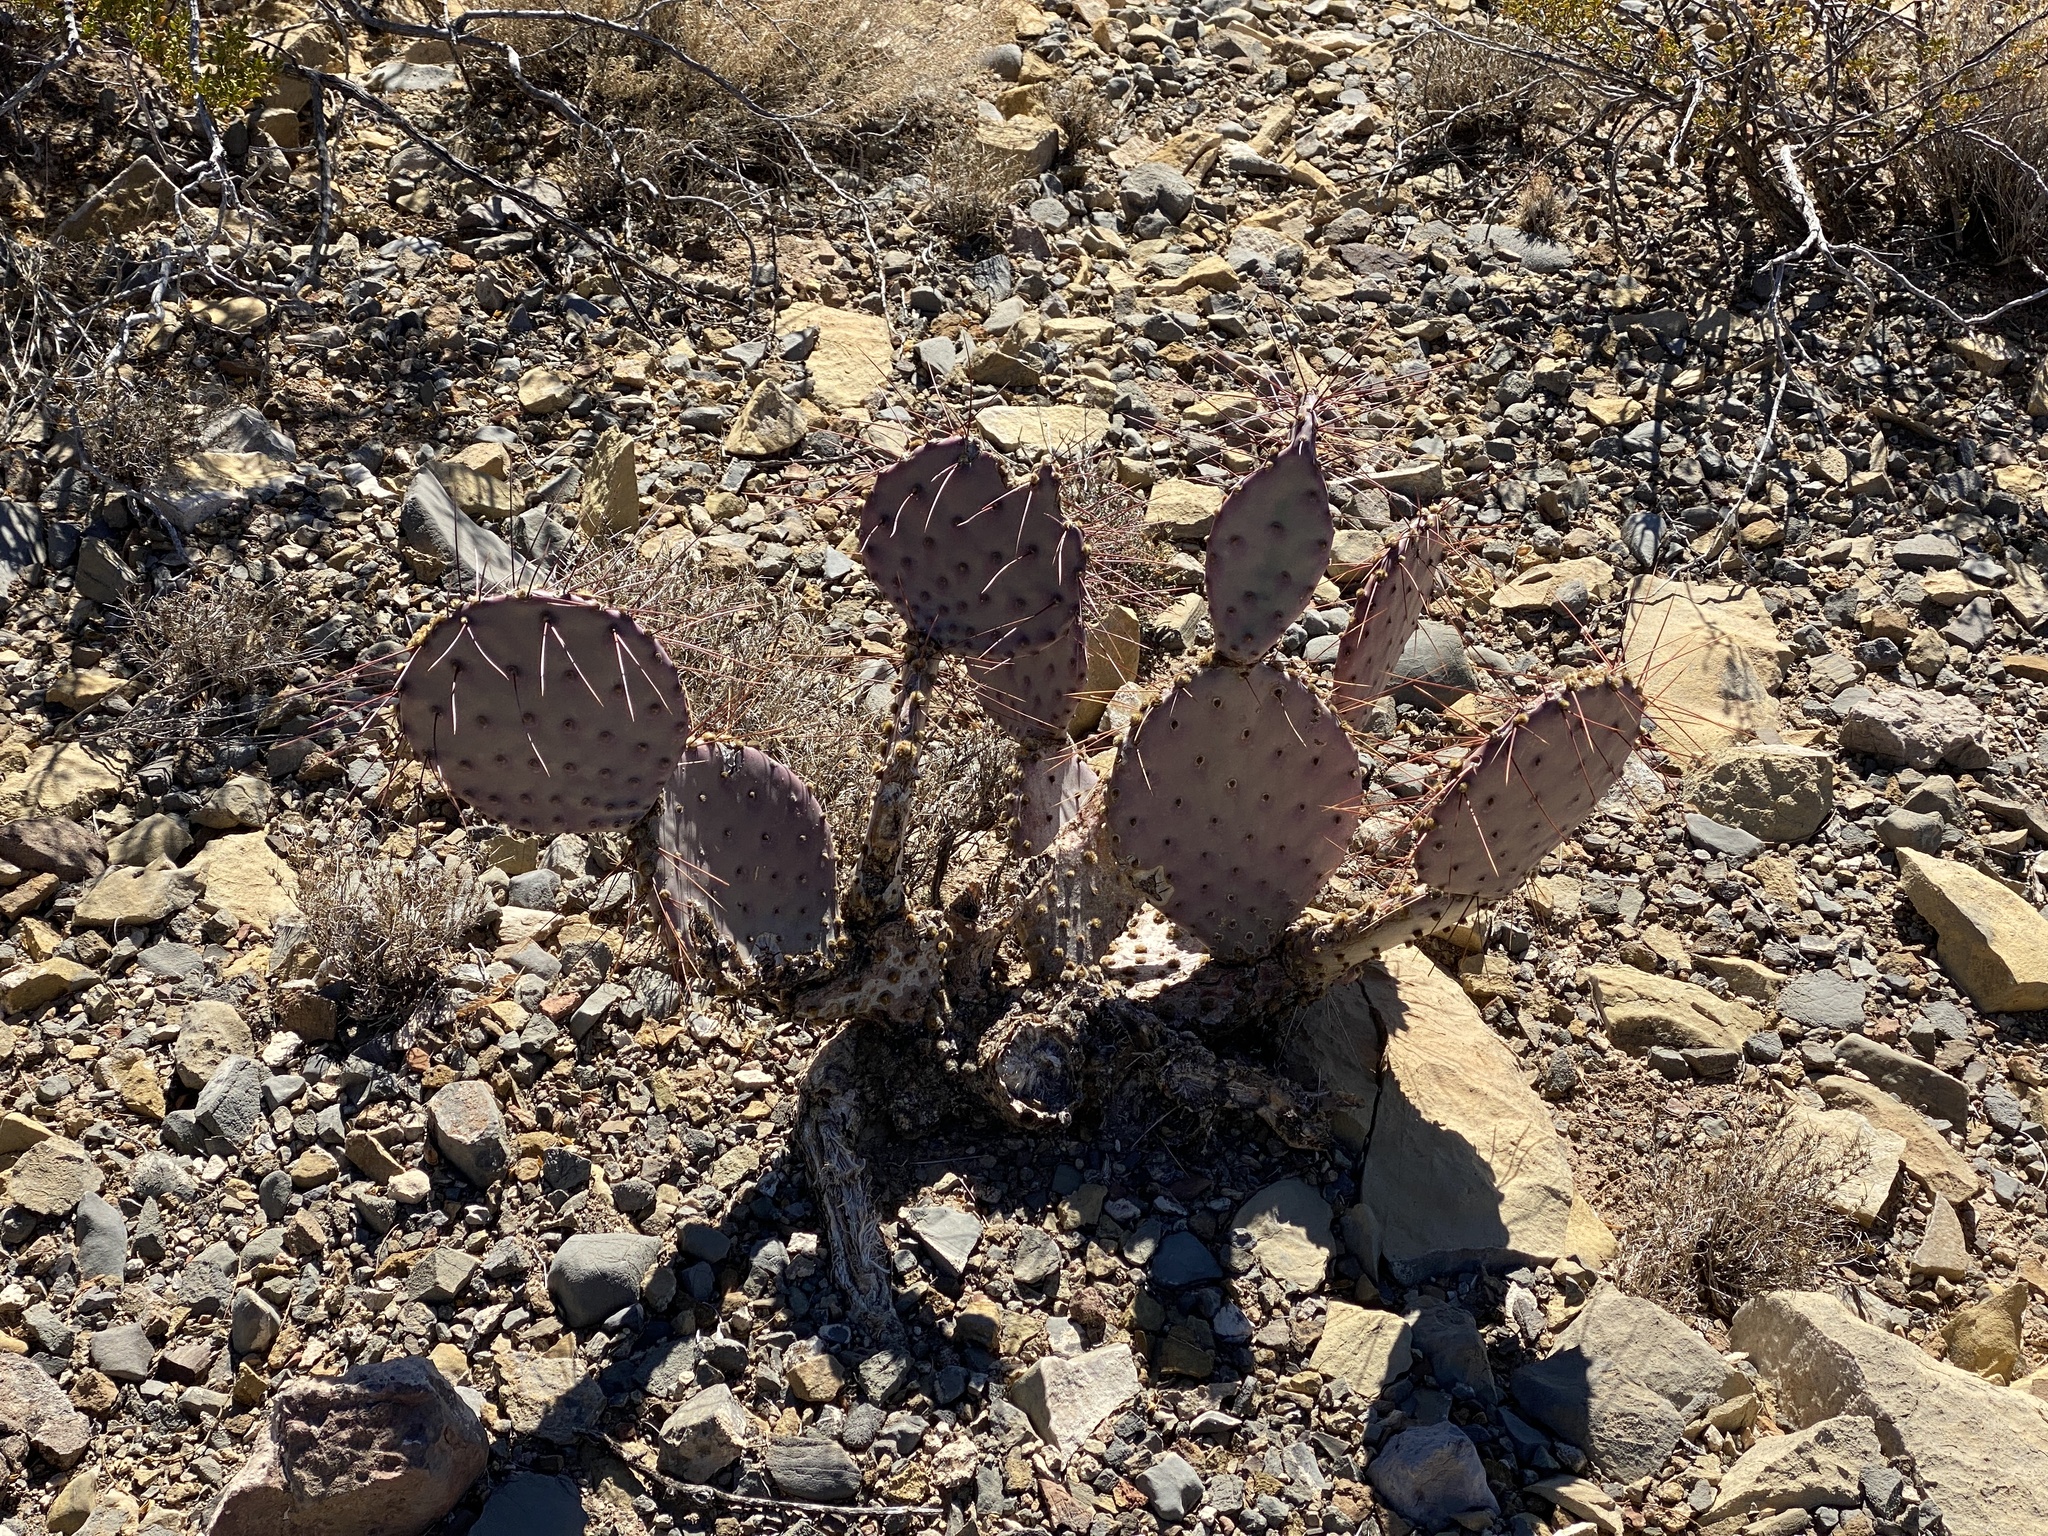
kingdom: Plantae
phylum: Tracheophyta
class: Magnoliopsida
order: Caryophyllales
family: Cactaceae
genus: Opuntia
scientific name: Opuntia macrocentra
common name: Purple prickly-pear
